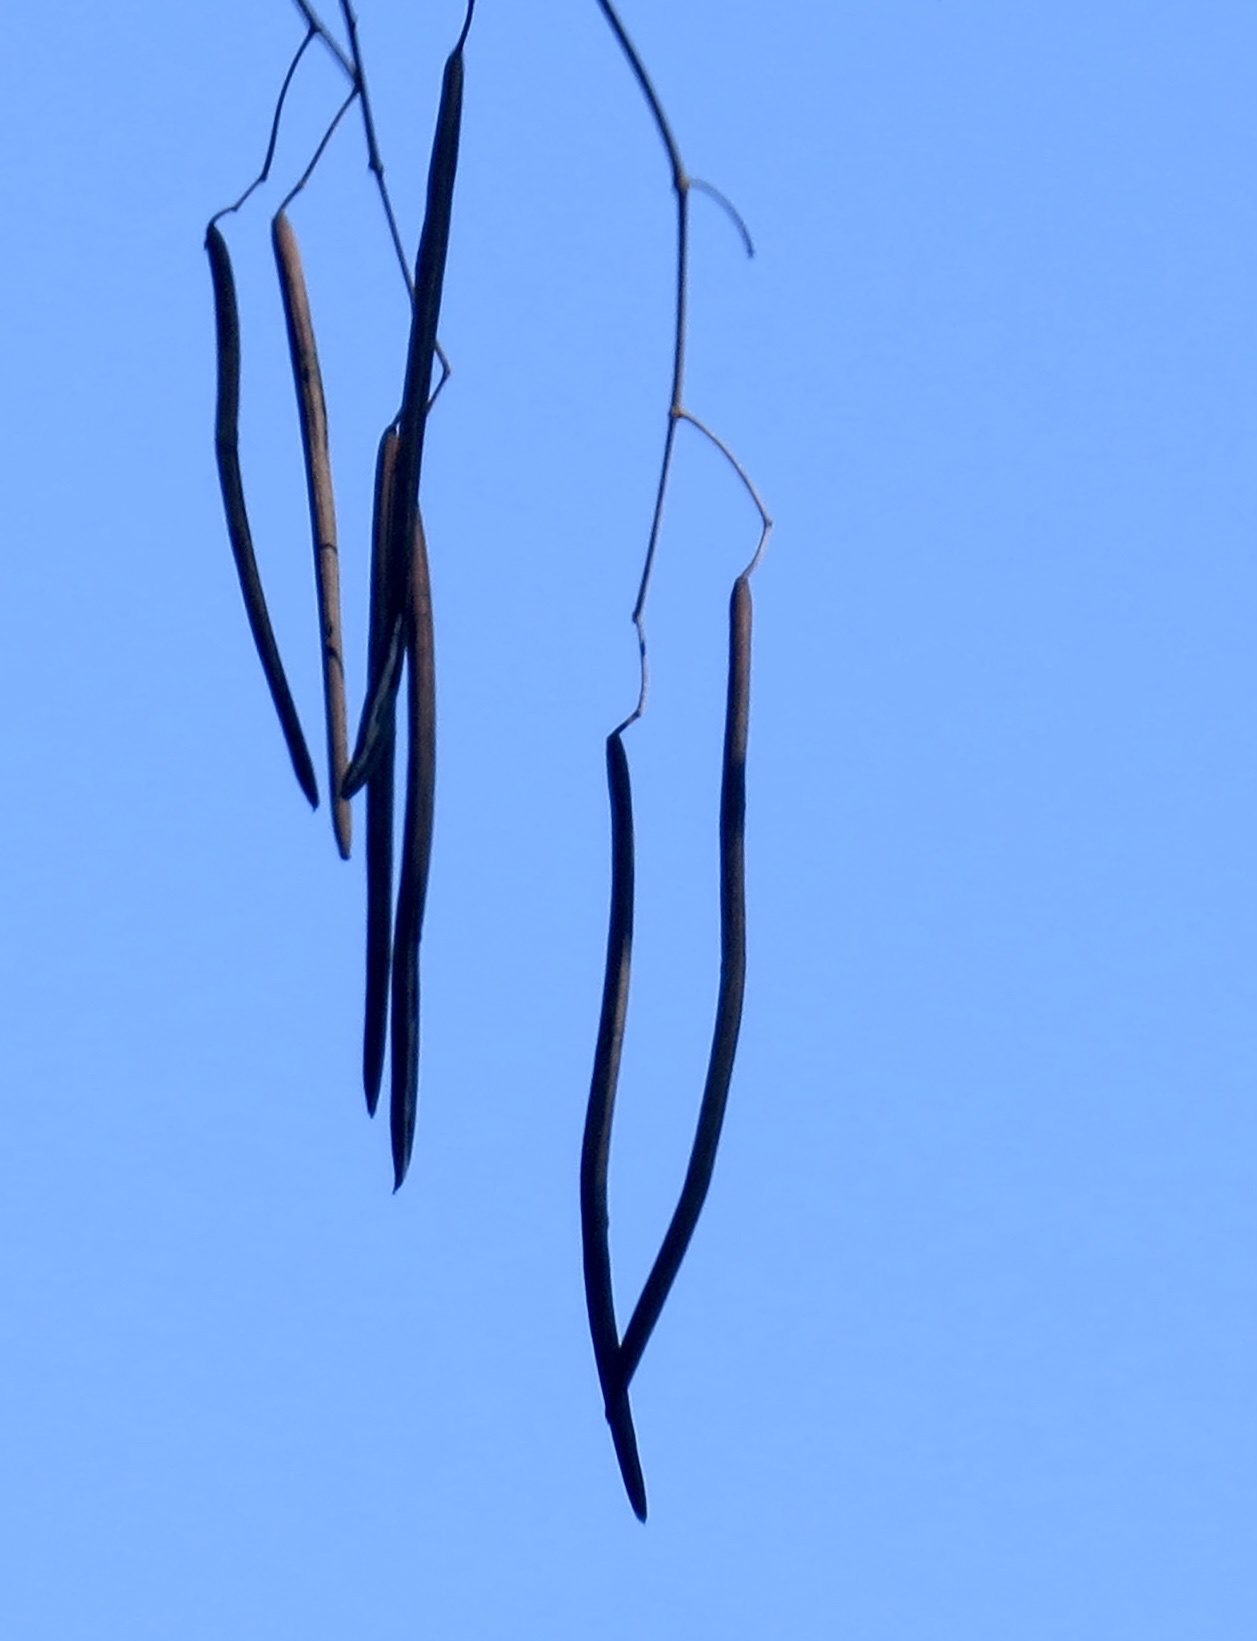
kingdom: Plantae
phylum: Tracheophyta
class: Magnoliopsida
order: Lamiales
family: Bignoniaceae
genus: Catalpa
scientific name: Catalpa
